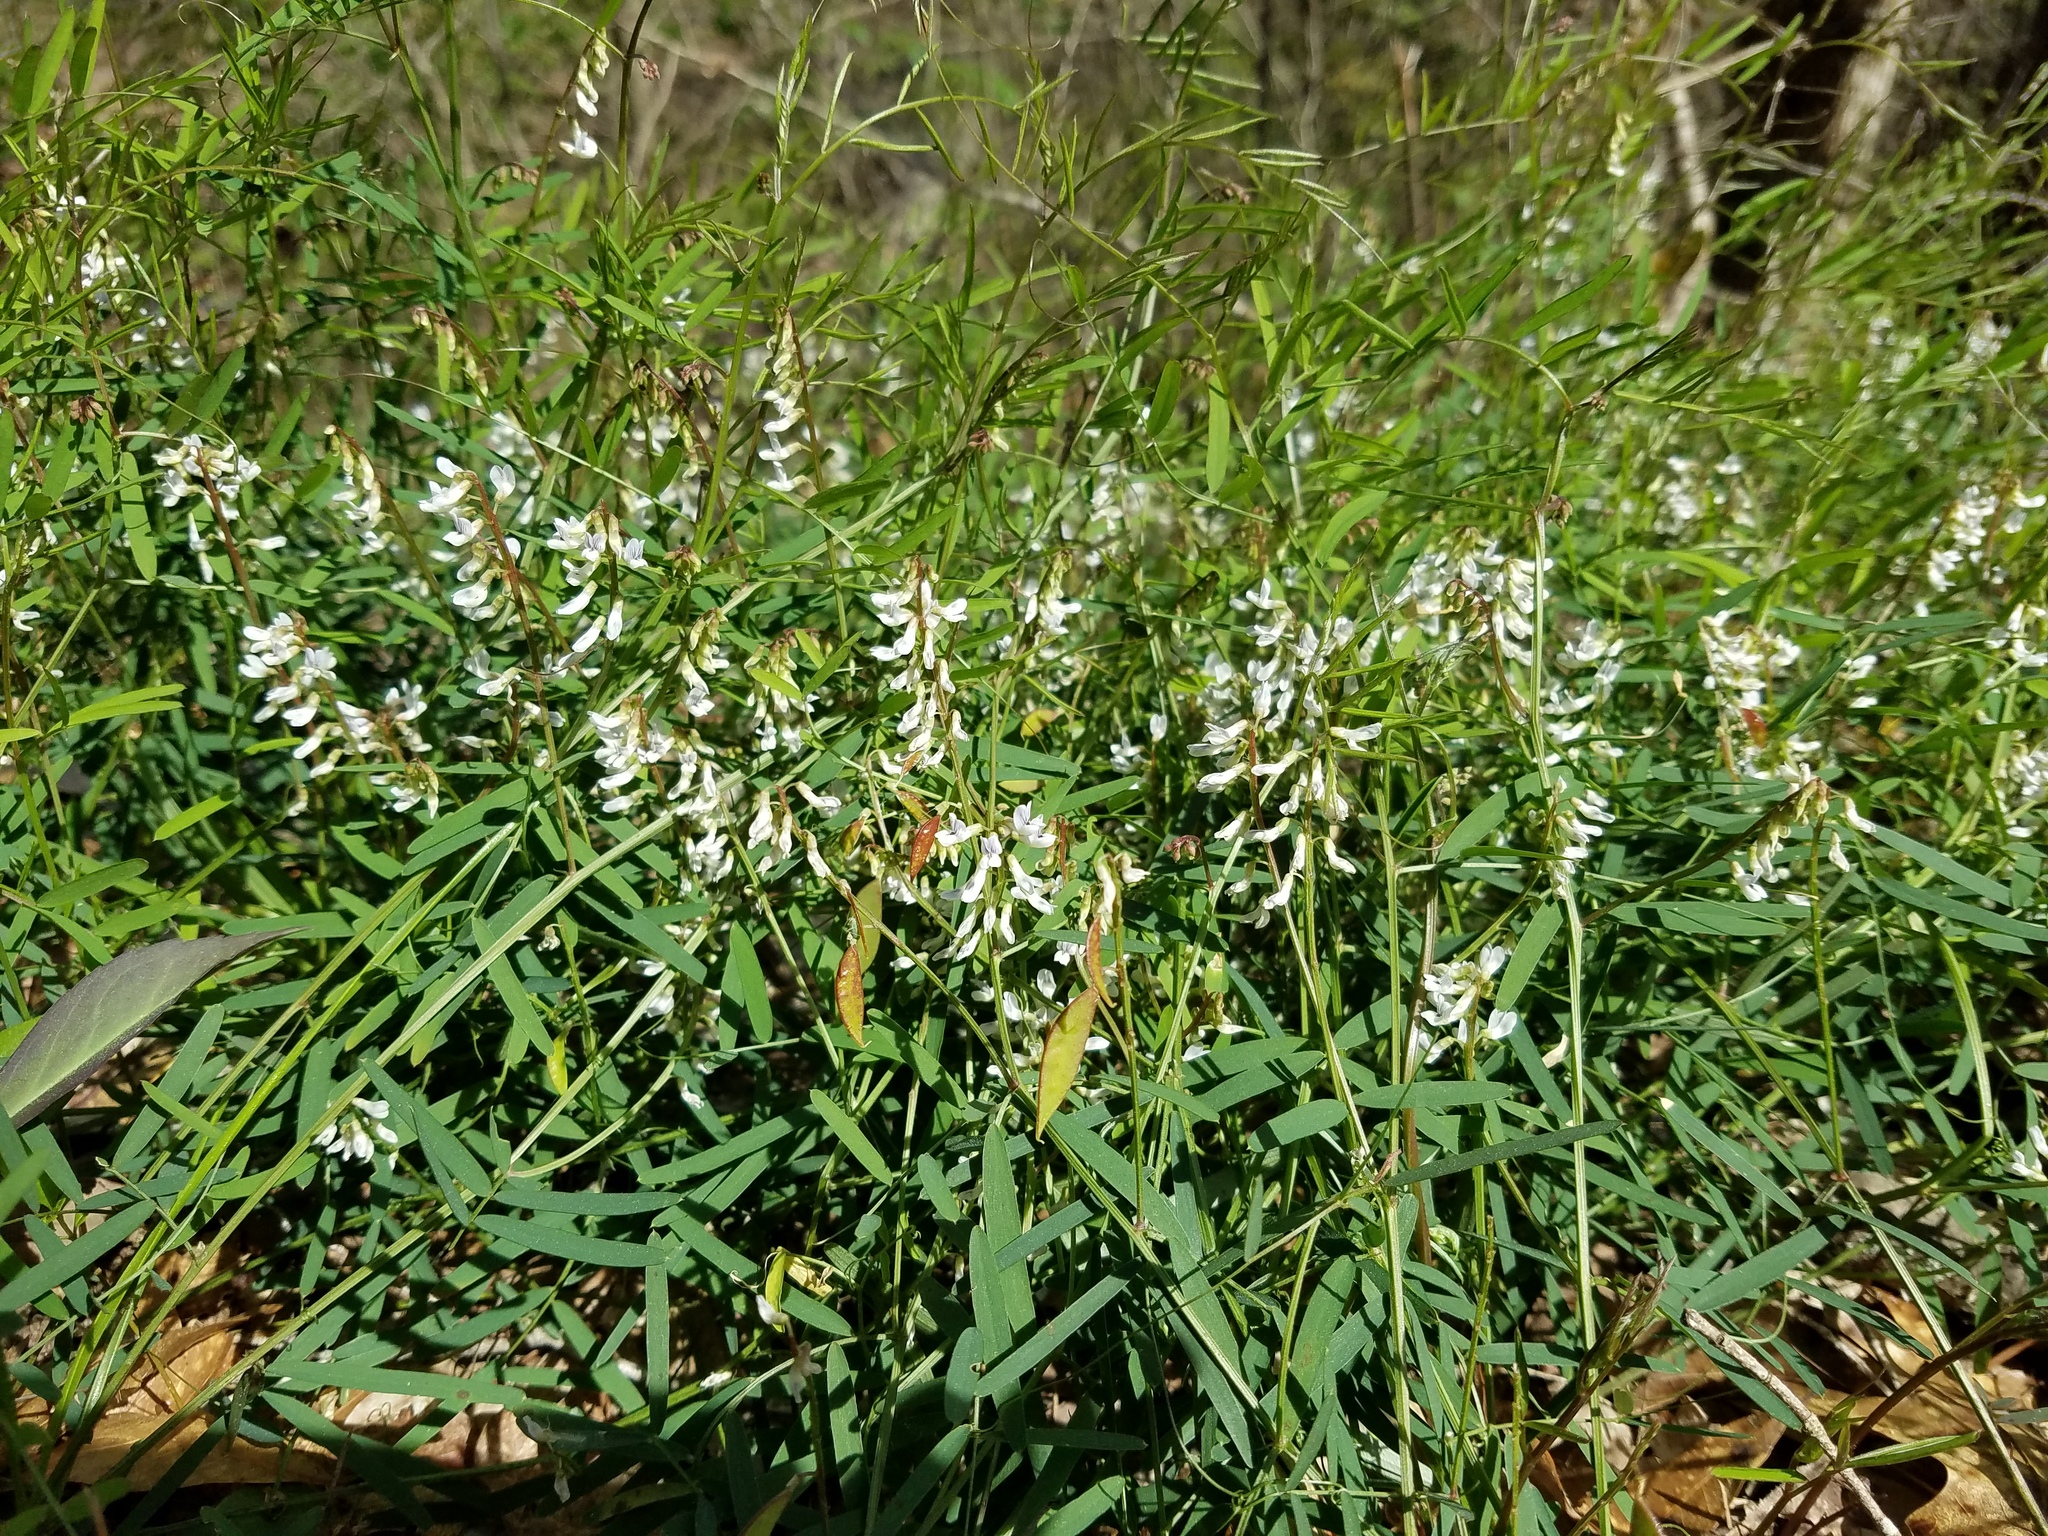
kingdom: Plantae
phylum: Tracheophyta
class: Magnoliopsida
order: Fabales
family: Fabaceae
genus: Vicia
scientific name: Vicia caroliniana
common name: Carolina vetch
